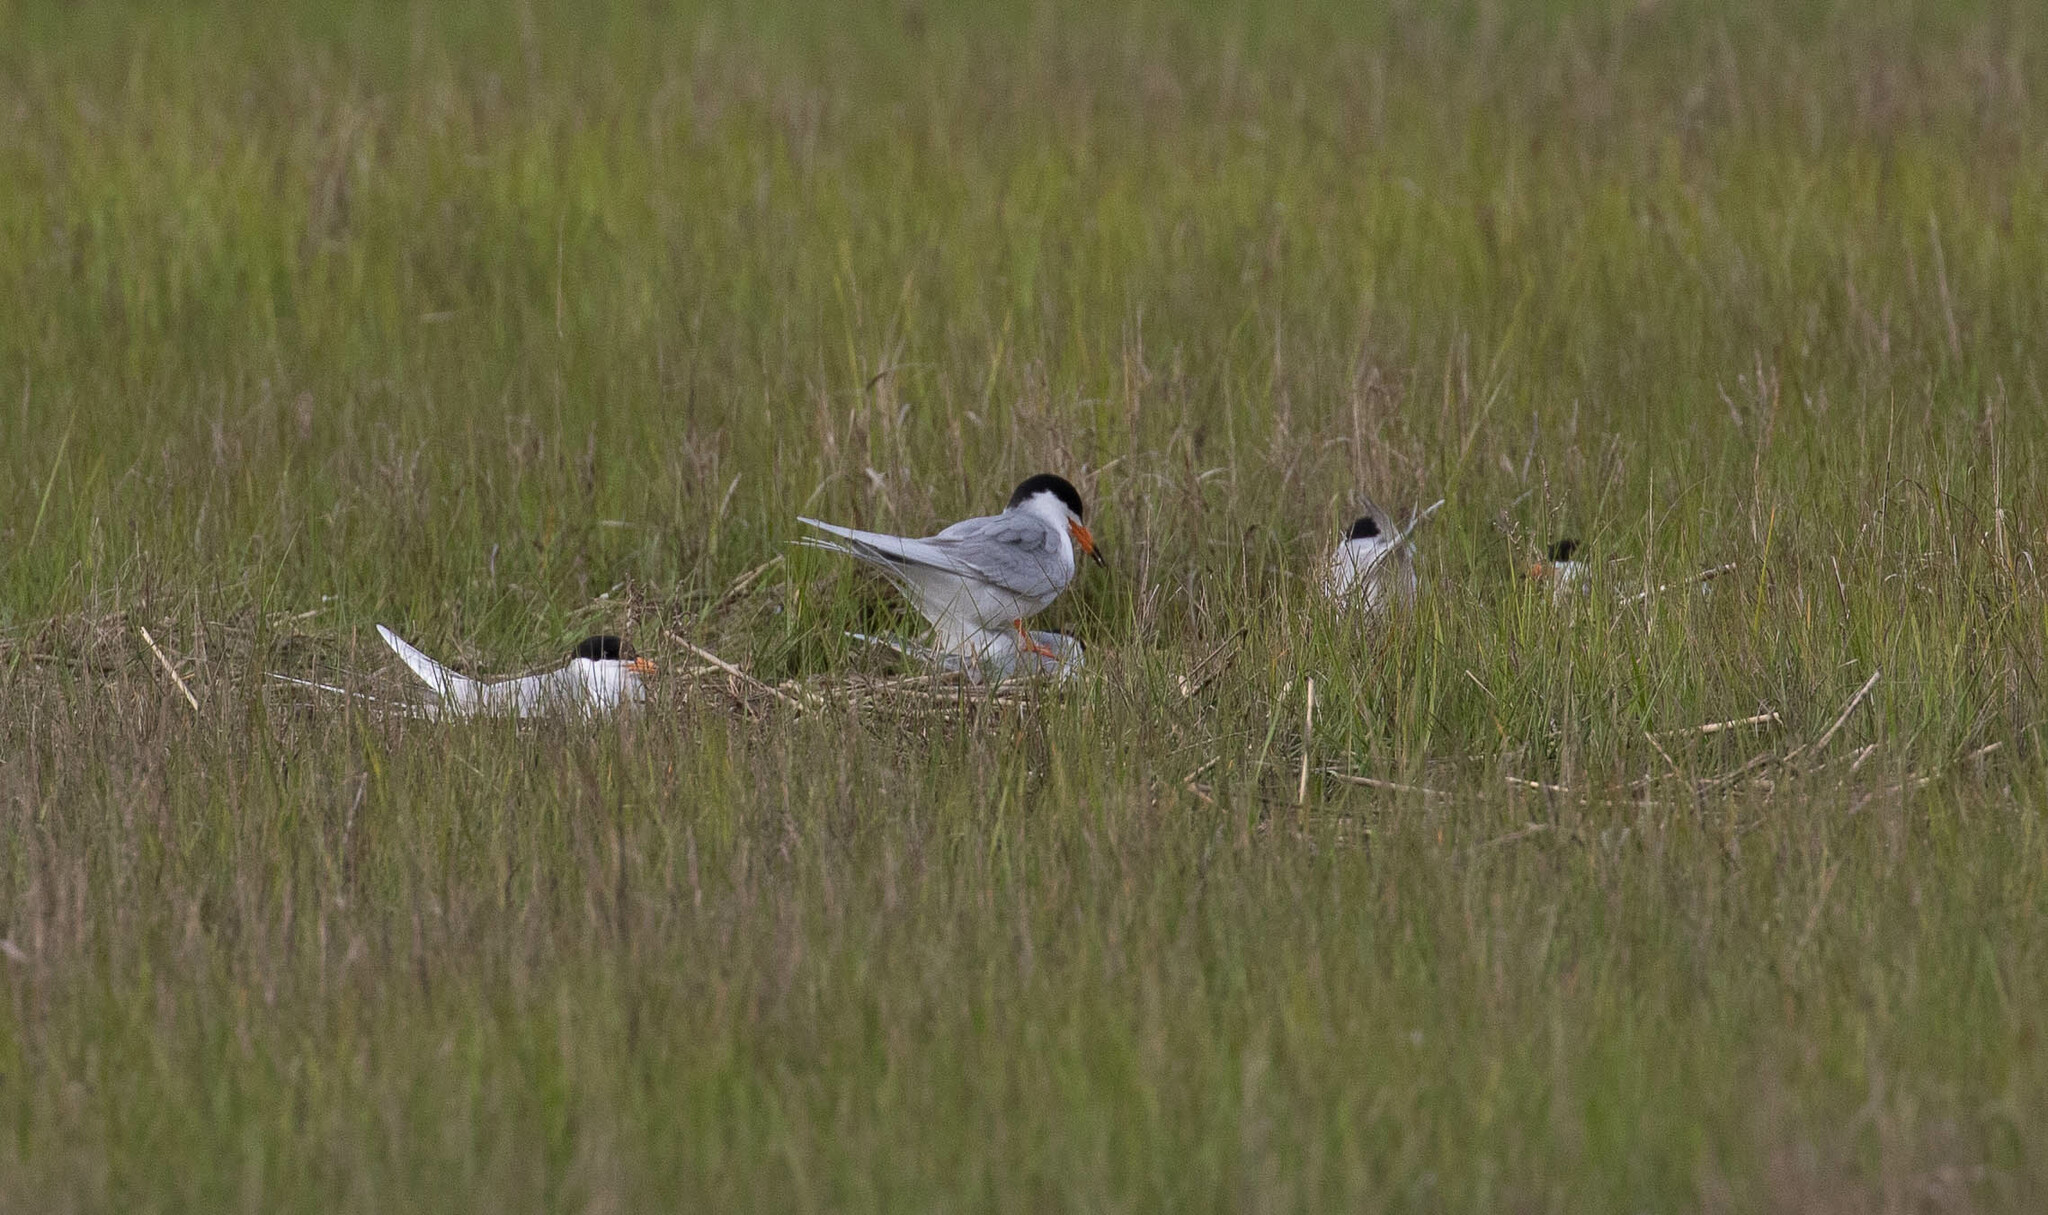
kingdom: Animalia
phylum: Chordata
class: Aves
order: Charadriiformes
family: Laridae
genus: Sterna
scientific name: Sterna forsteri
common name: Forster's tern
